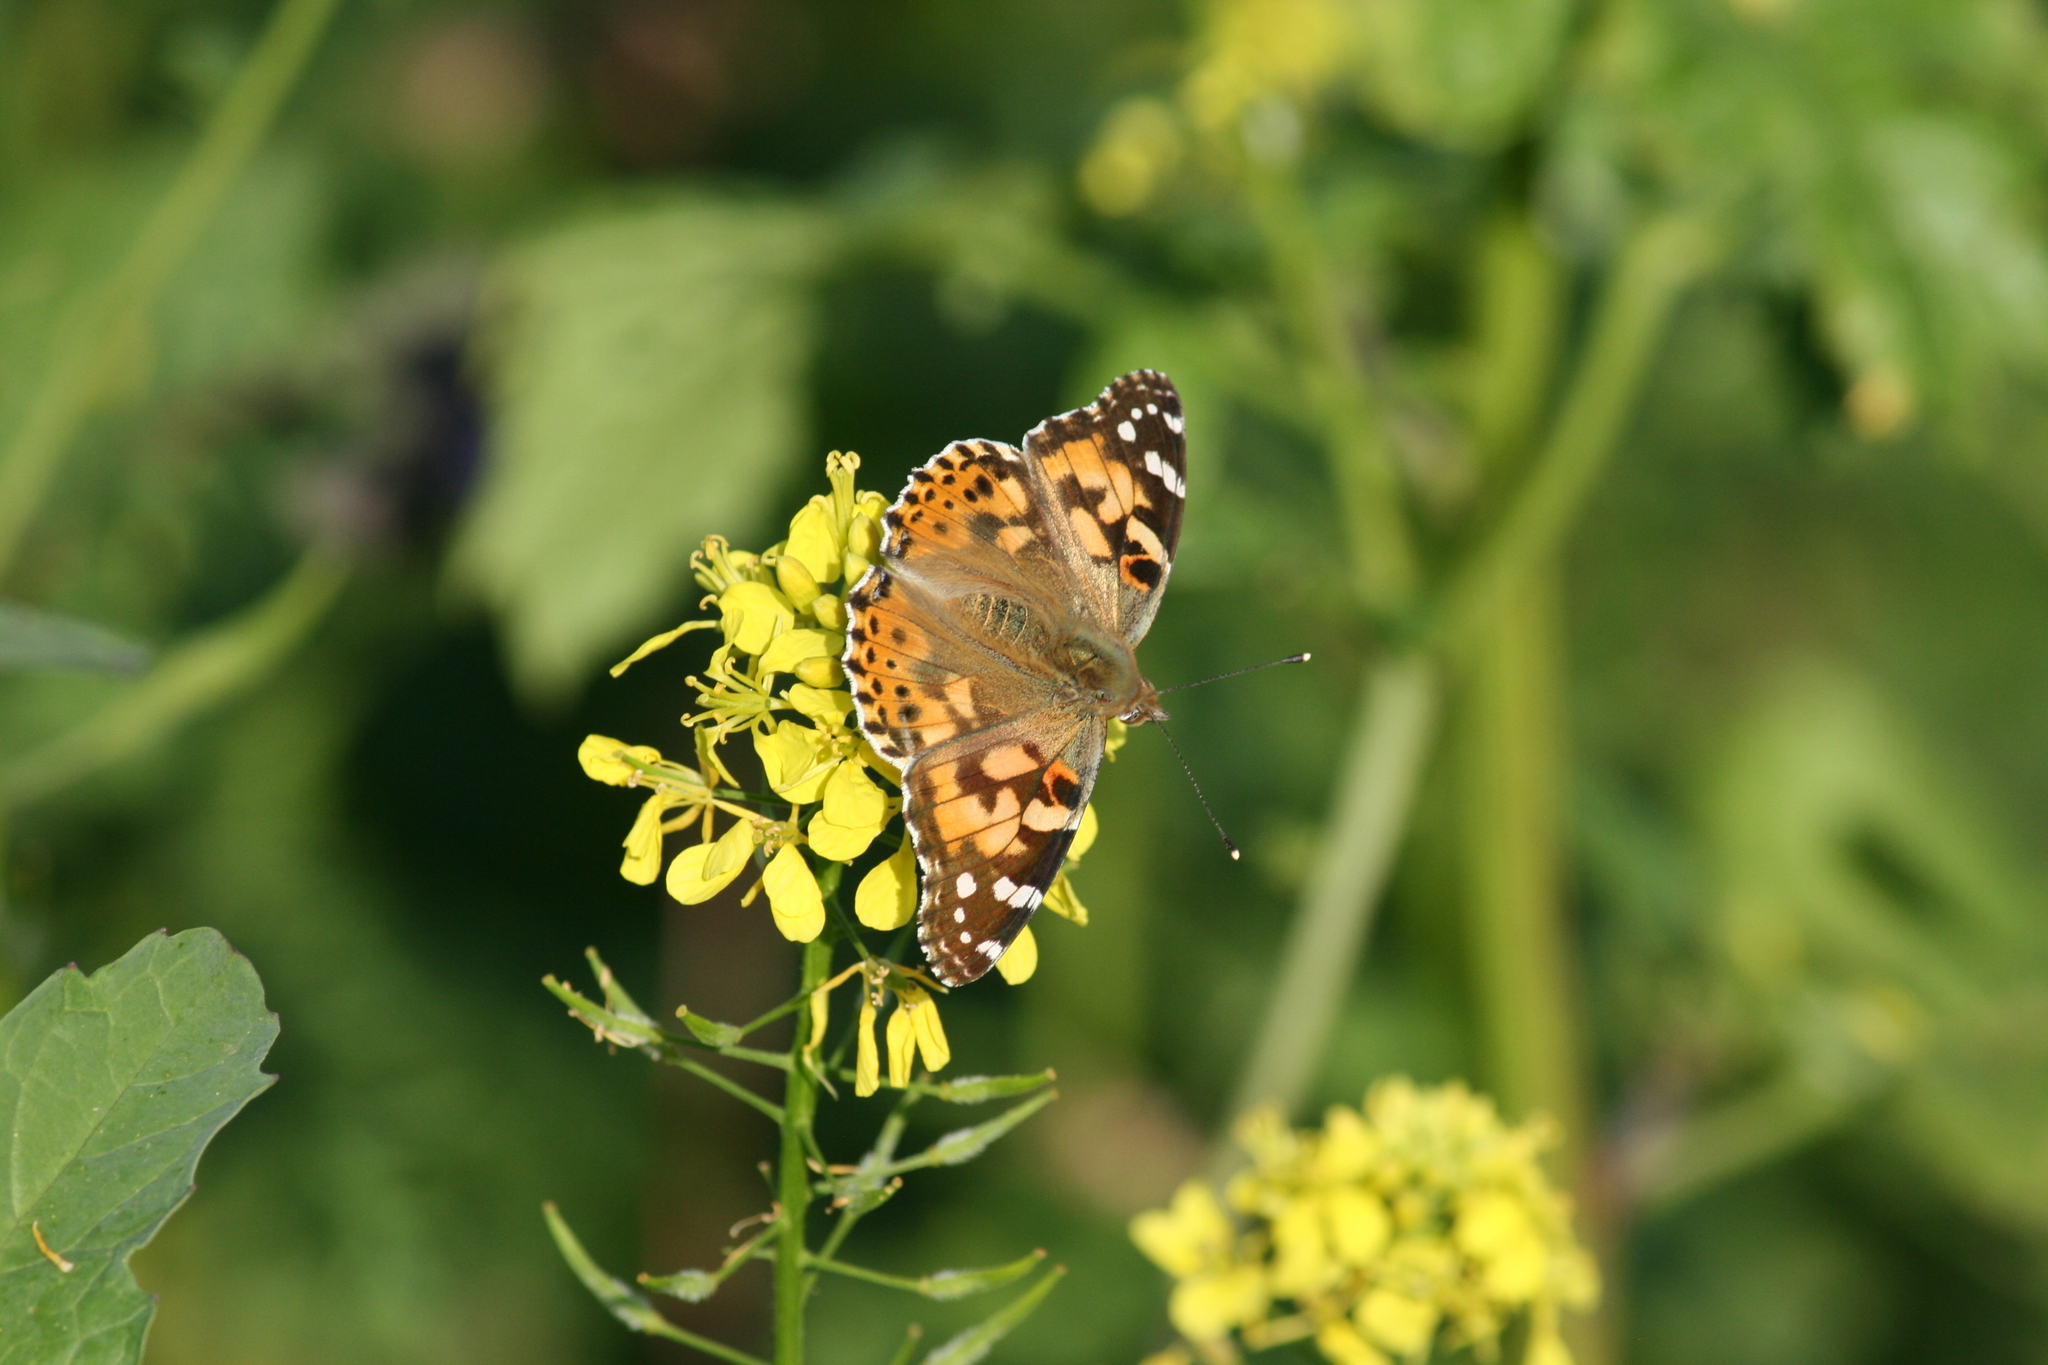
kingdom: Animalia
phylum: Arthropoda
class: Insecta
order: Lepidoptera
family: Nymphalidae
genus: Vanessa
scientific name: Vanessa cardui
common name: Painted lady
